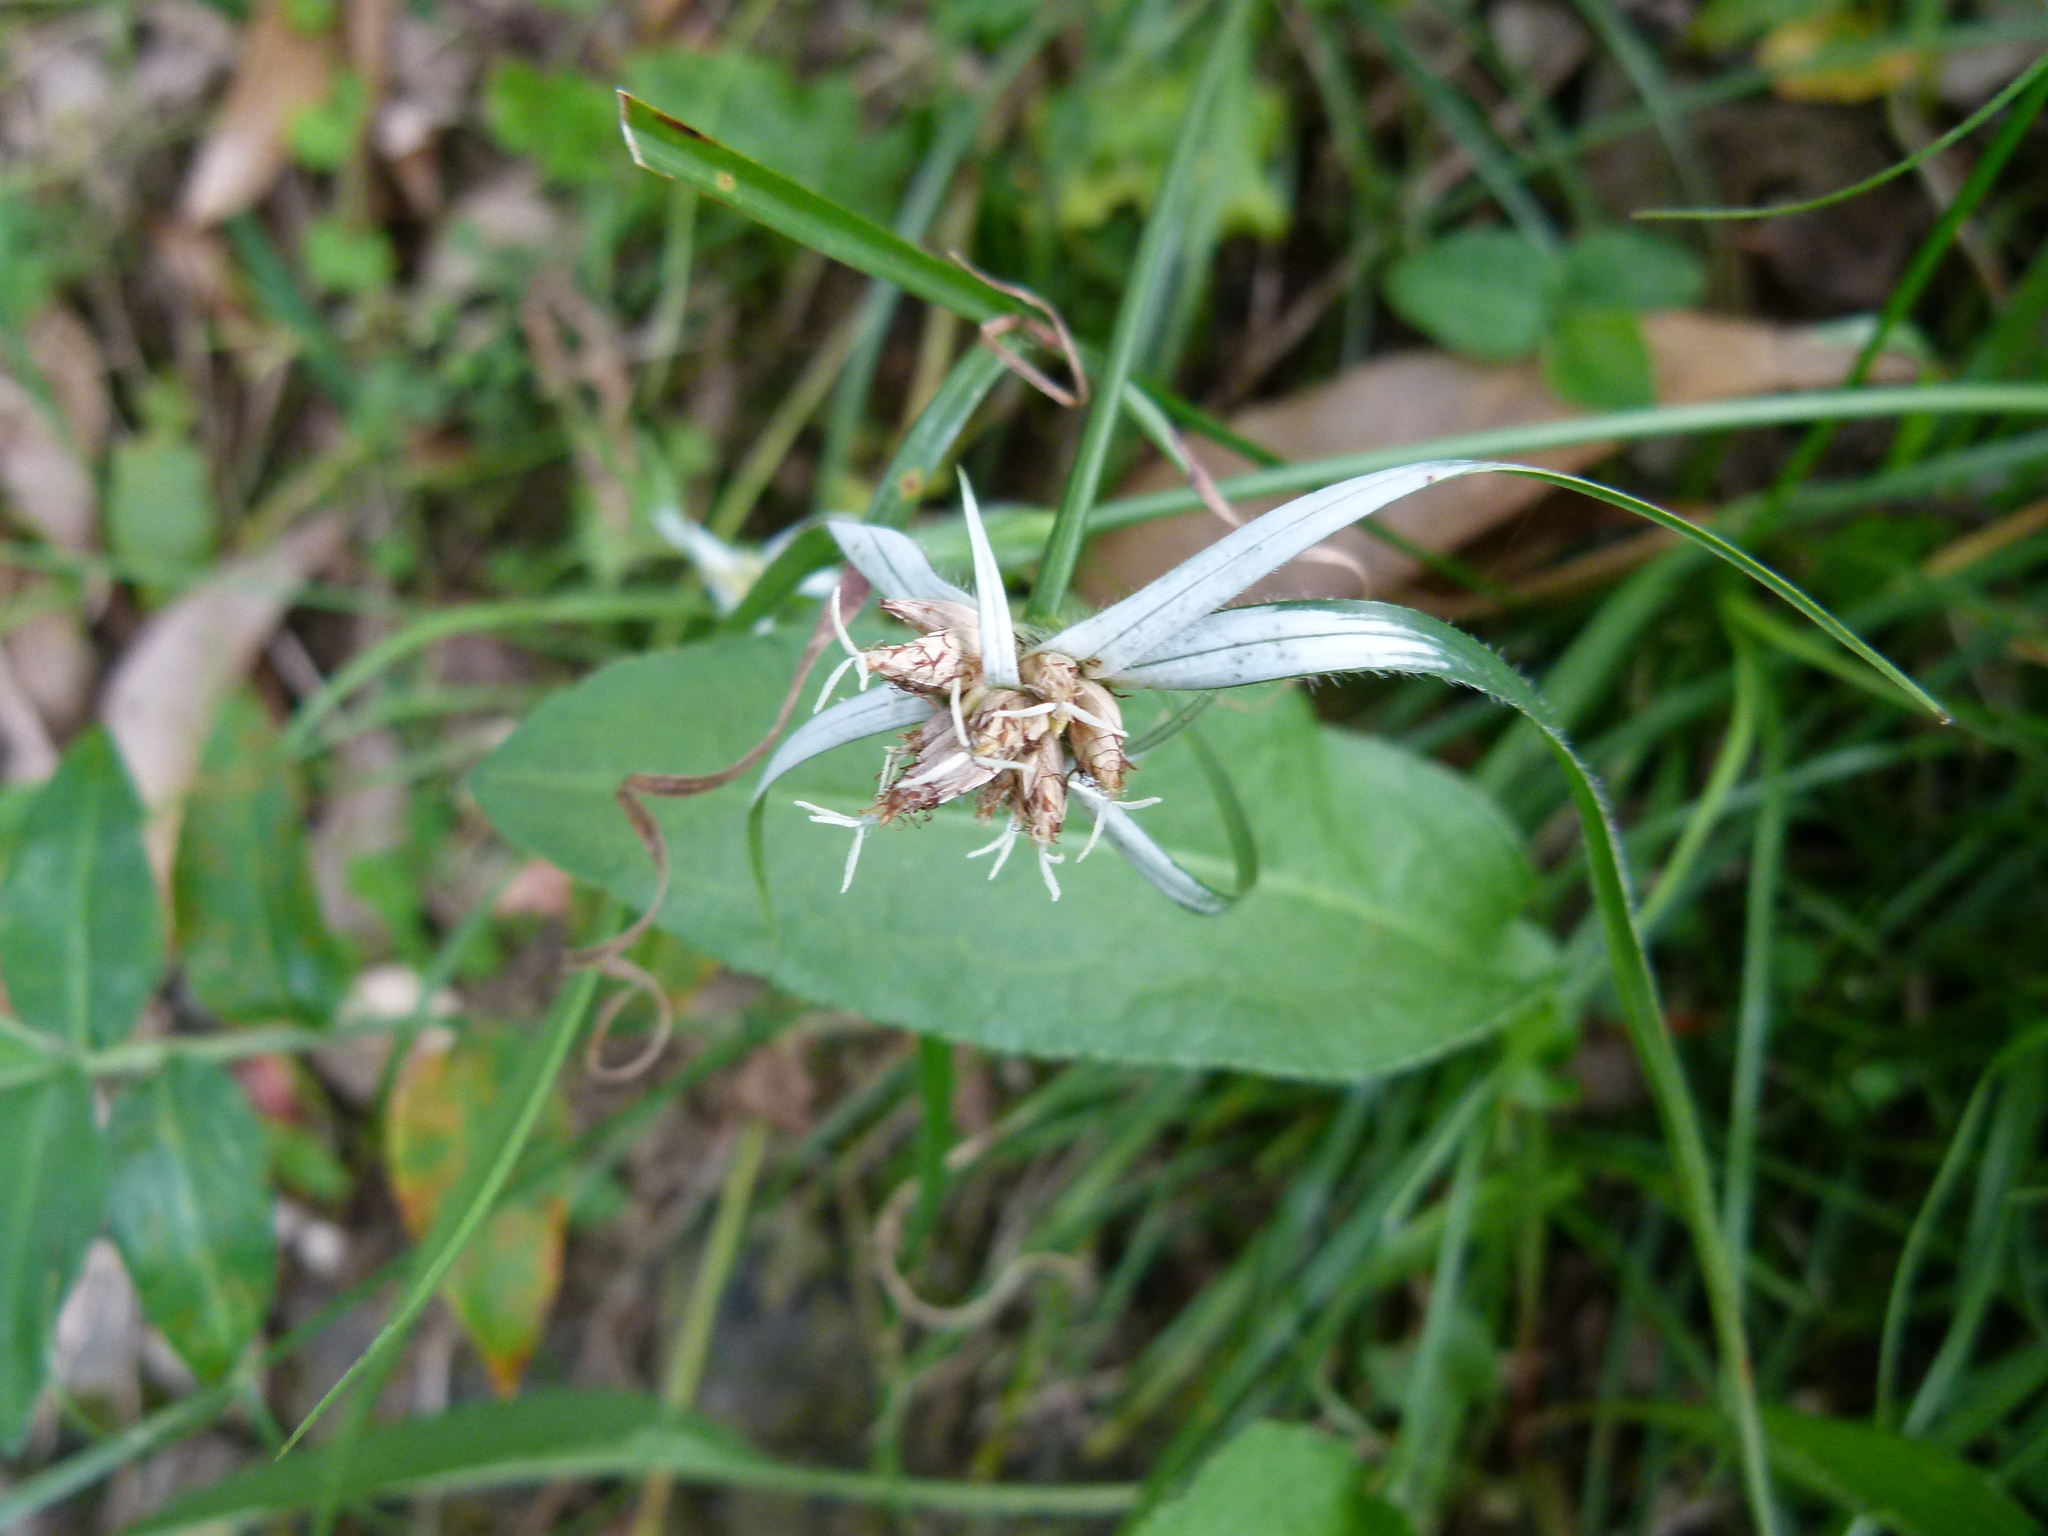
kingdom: Plantae
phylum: Tracheophyta
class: Liliopsida
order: Poales
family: Cyperaceae
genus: Rhynchospora
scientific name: Rhynchospora pura
